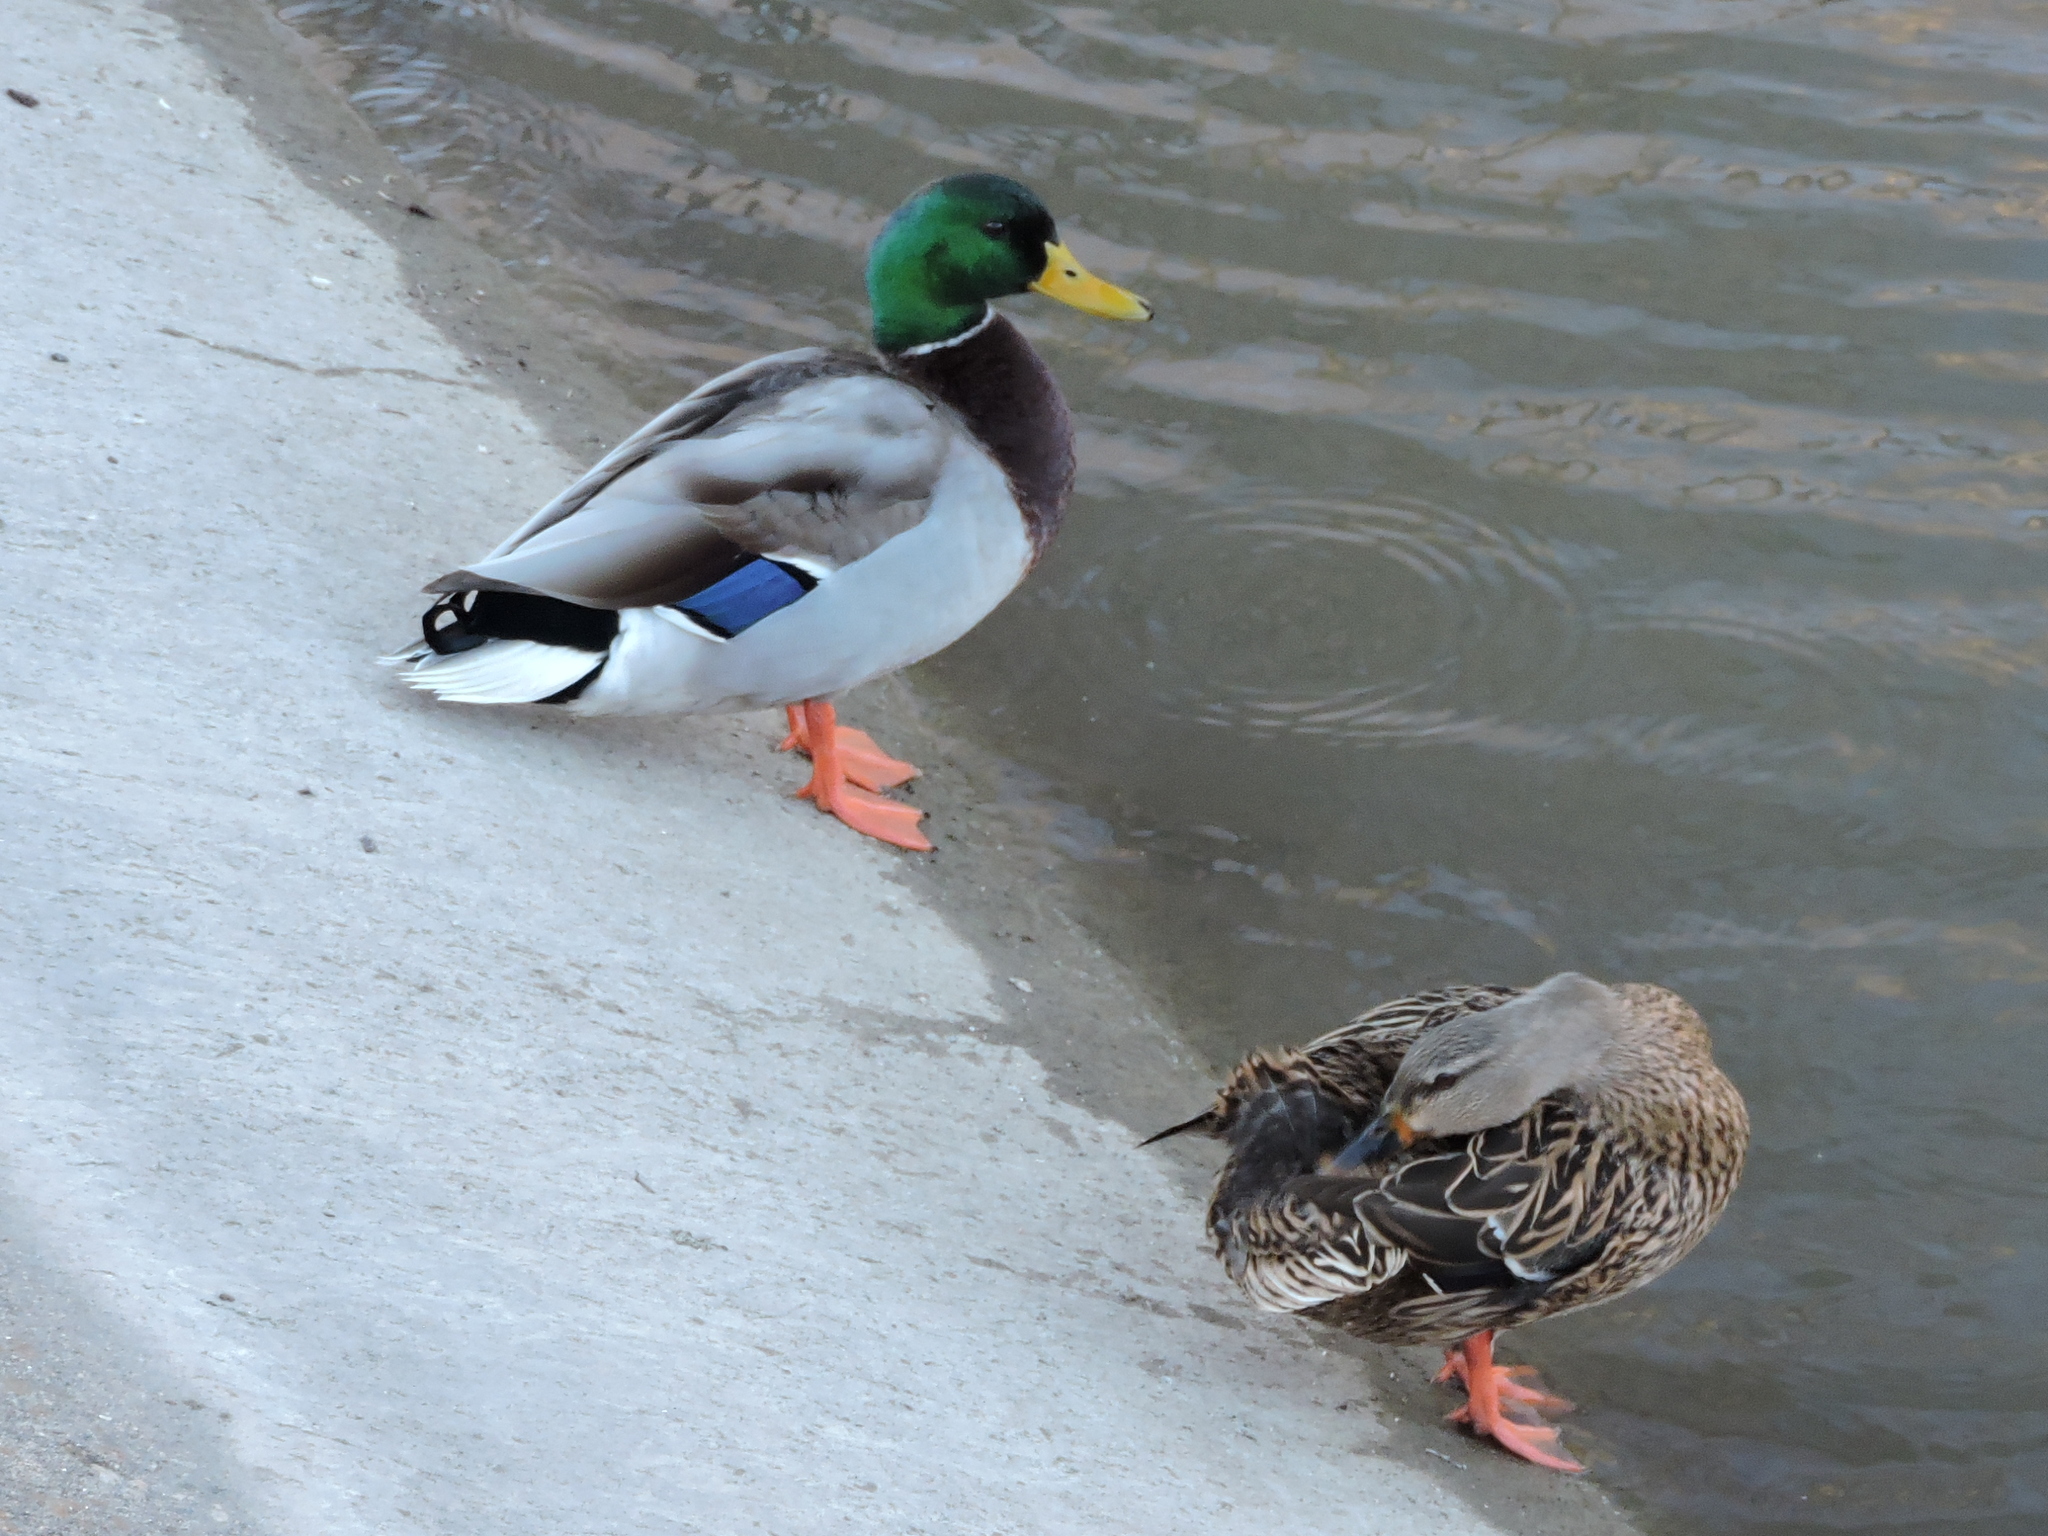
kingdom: Animalia
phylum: Chordata
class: Aves
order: Anseriformes
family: Anatidae
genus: Anas
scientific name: Anas platyrhynchos
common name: Mallard
